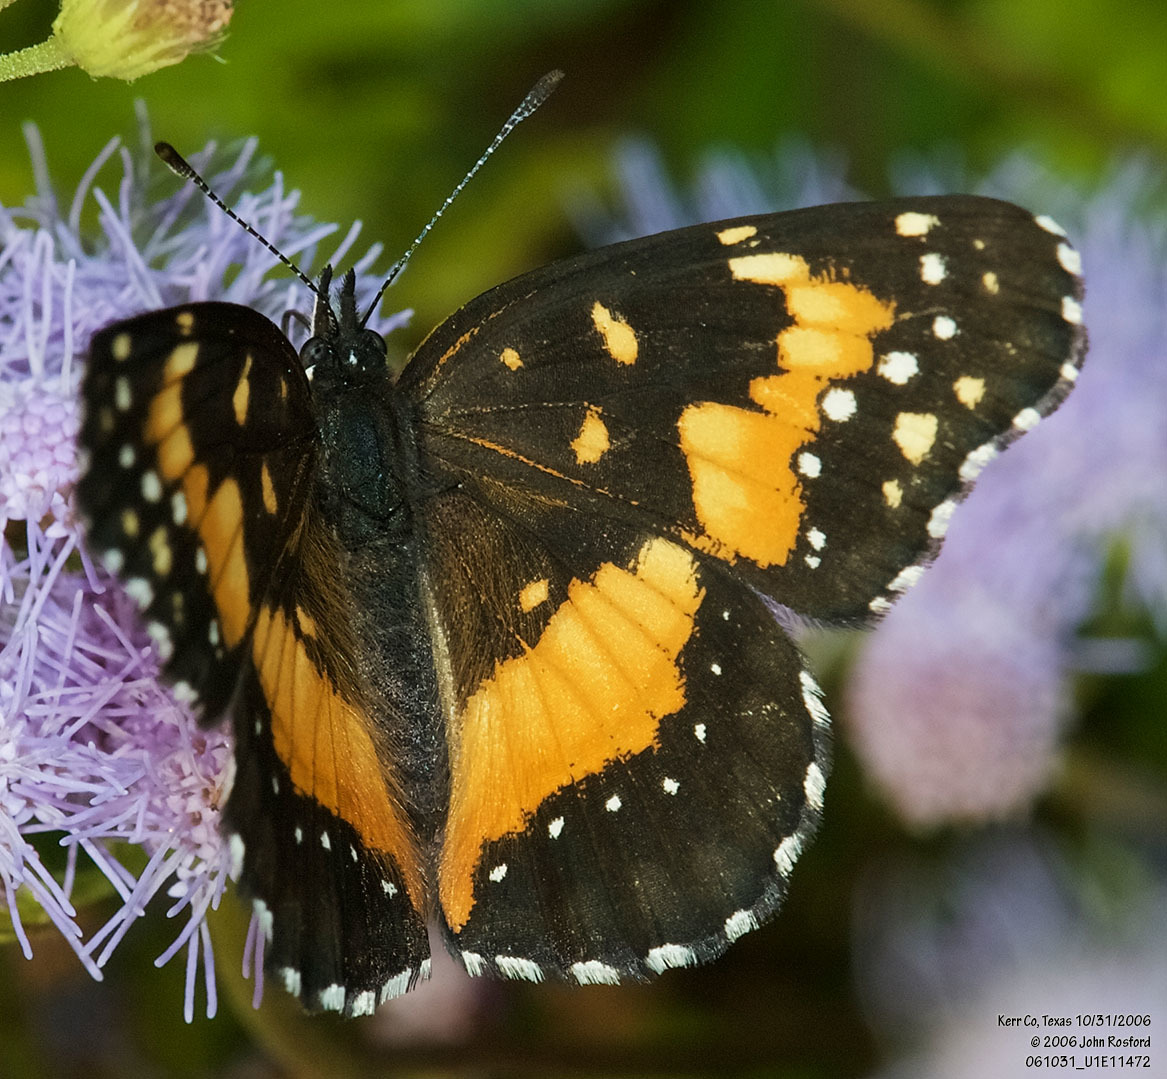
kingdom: Animalia
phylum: Arthropoda
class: Insecta
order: Lepidoptera
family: Nymphalidae
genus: Chlosyne
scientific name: Chlosyne lacinia
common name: Bordered patch
